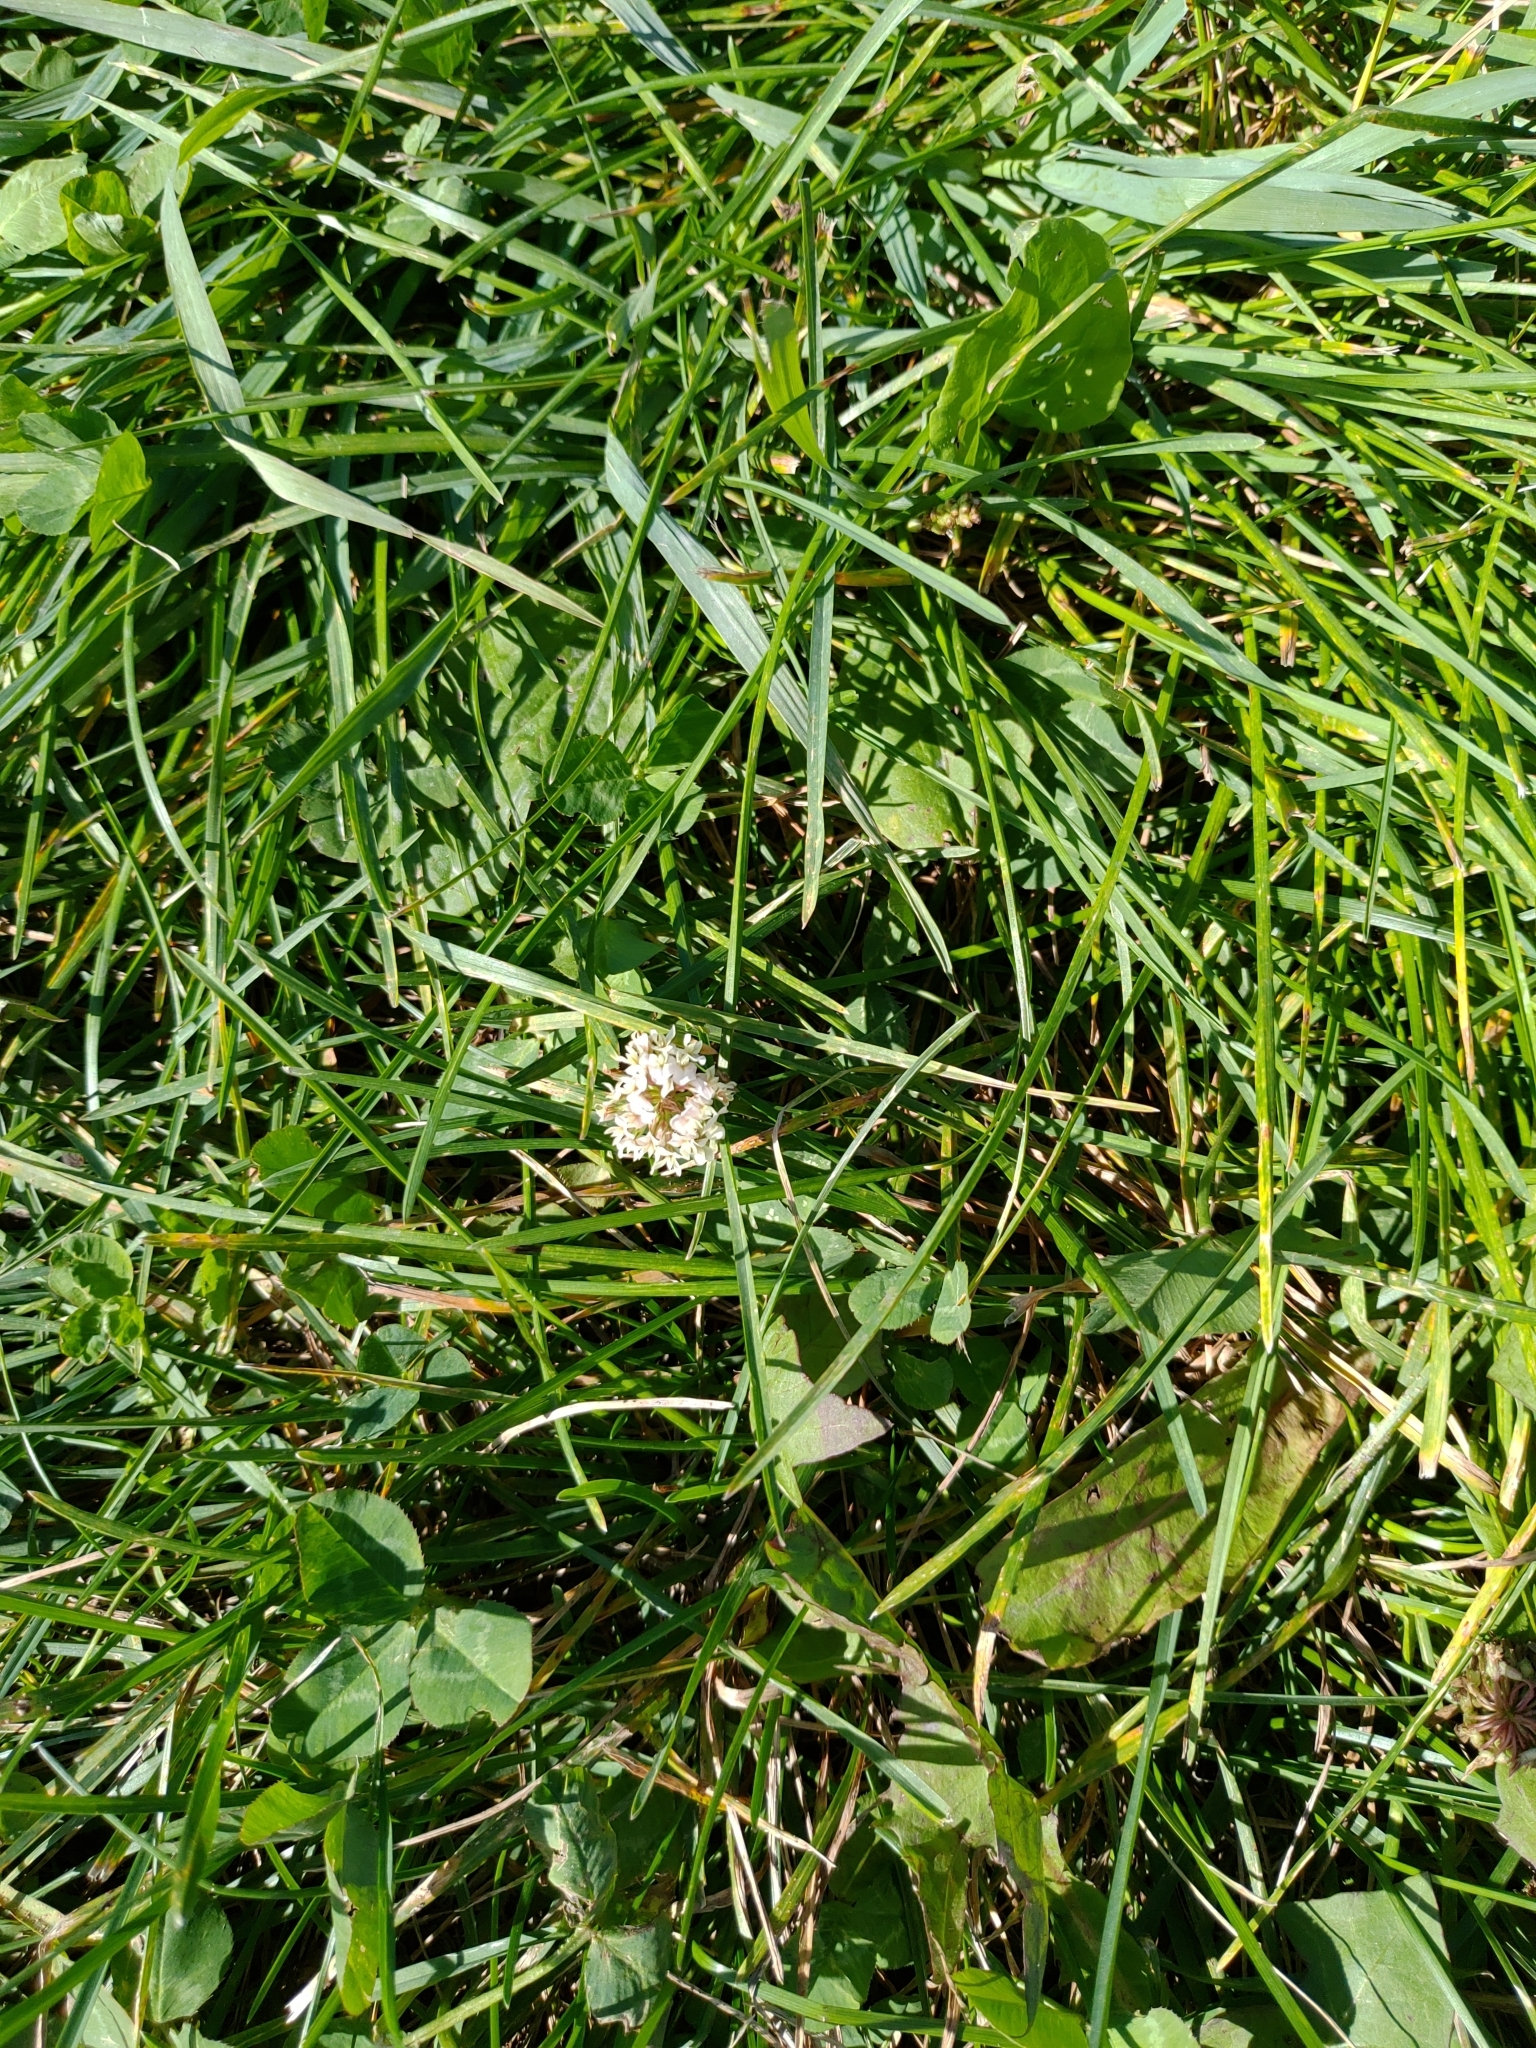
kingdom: Plantae
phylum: Tracheophyta
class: Magnoliopsida
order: Fabales
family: Fabaceae
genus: Trifolium
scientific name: Trifolium repens
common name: White clover
